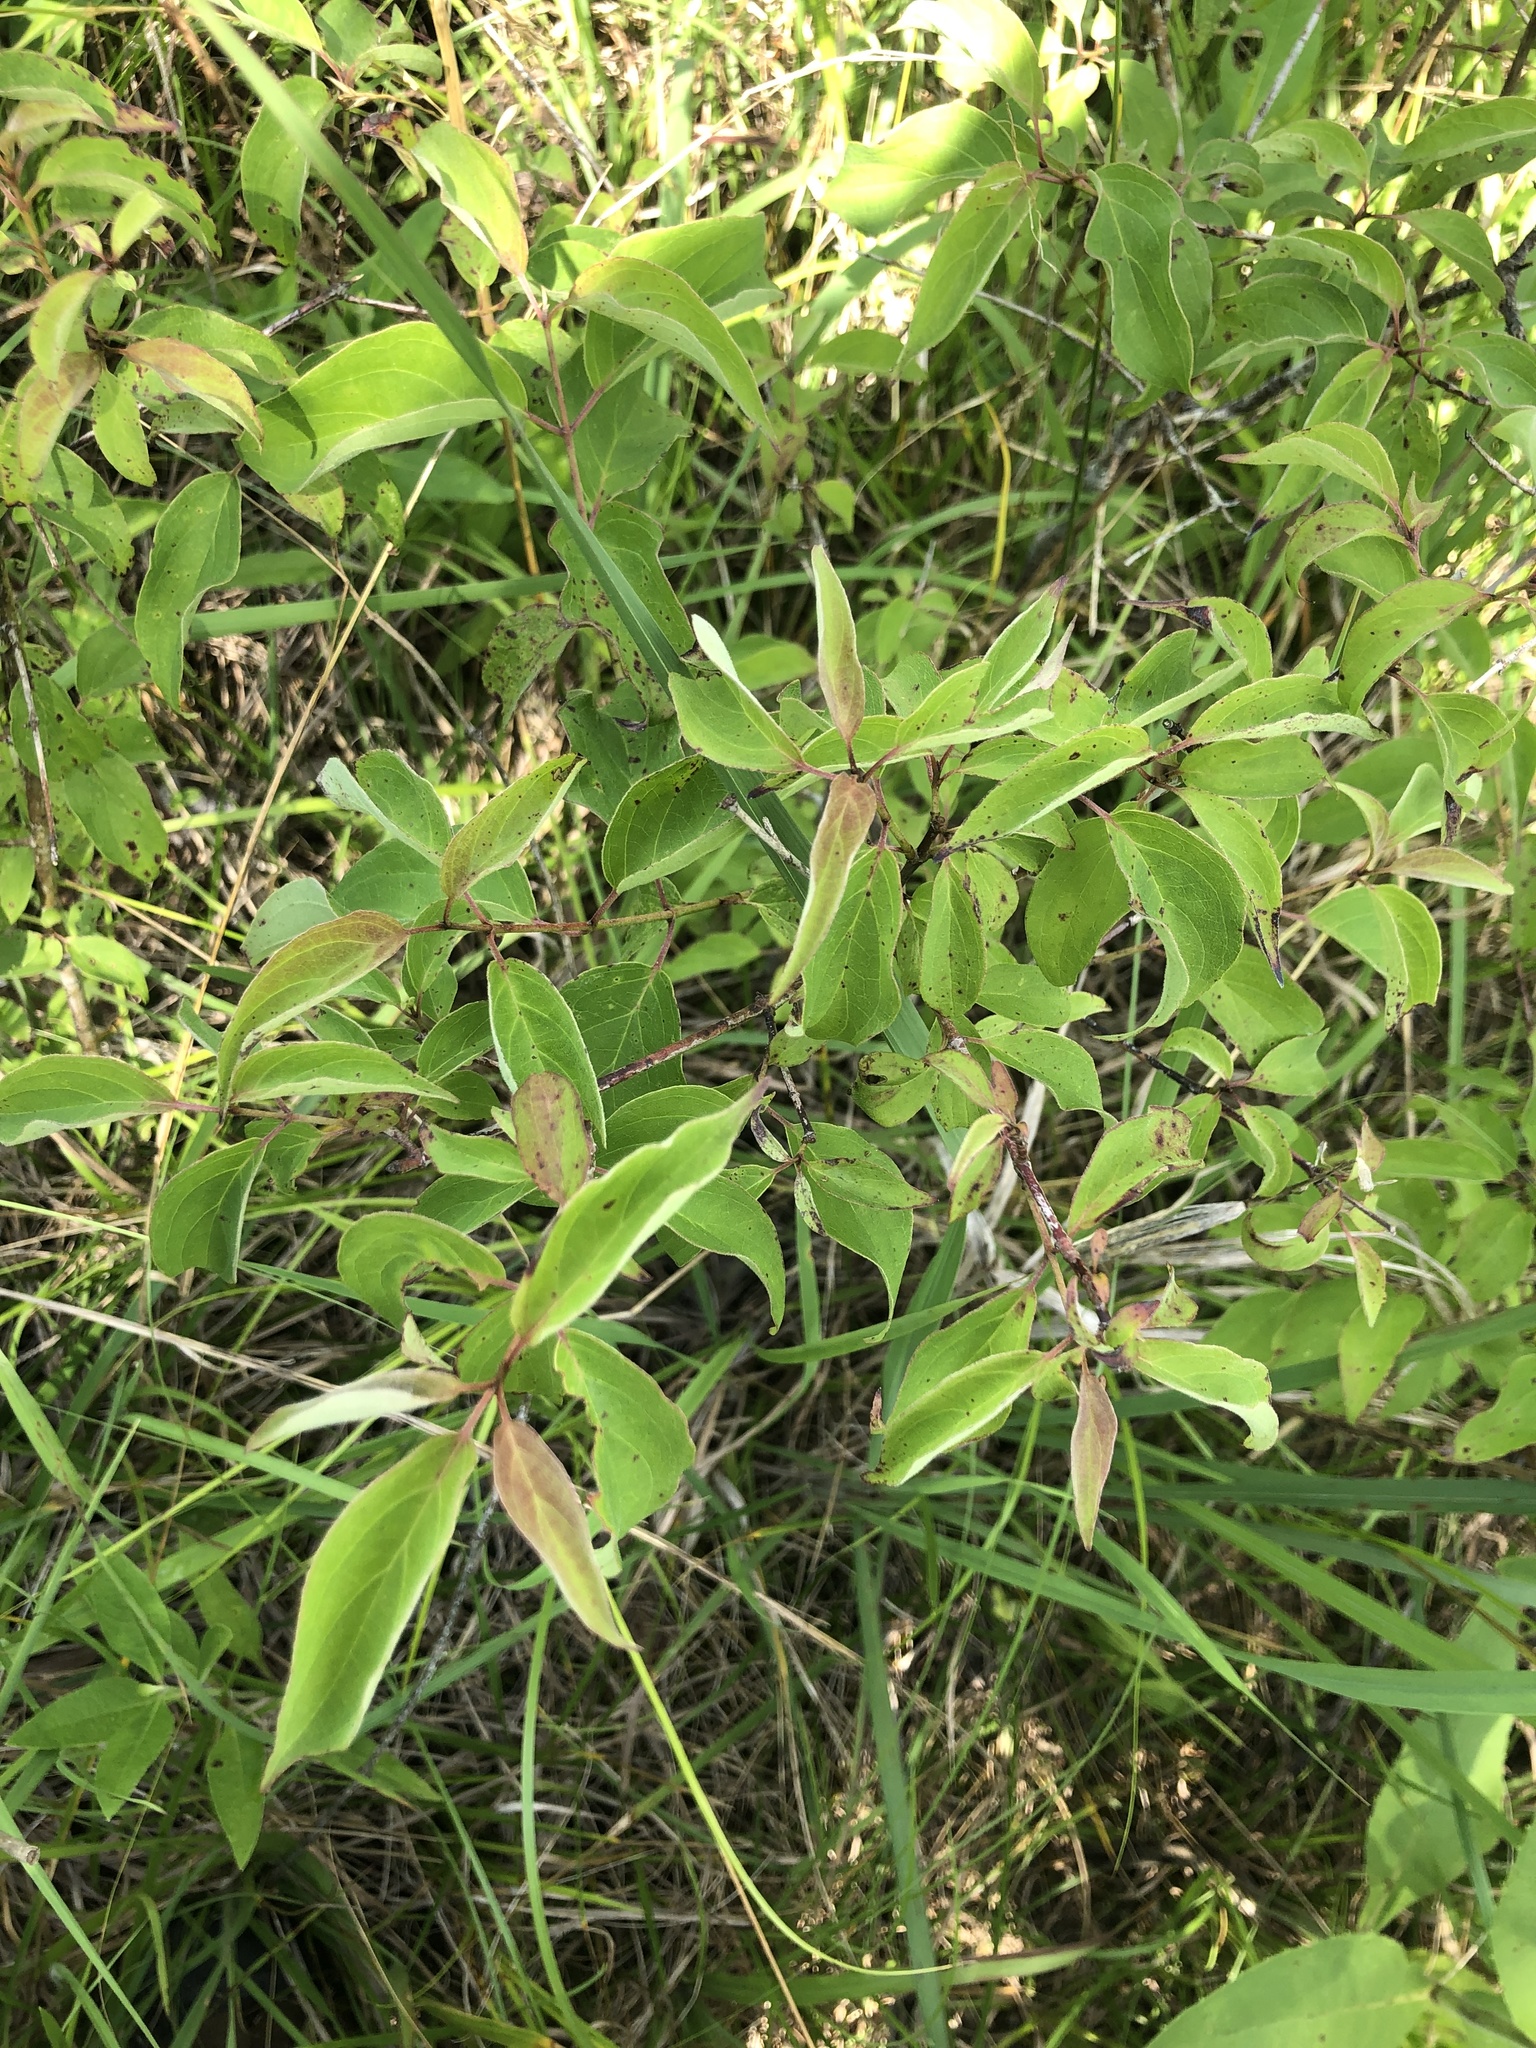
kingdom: Plantae
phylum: Tracheophyta
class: Magnoliopsida
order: Cornales
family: Cornaceae
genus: Cornus
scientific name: Cornus drummondii
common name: Rough-leaf dogwood
